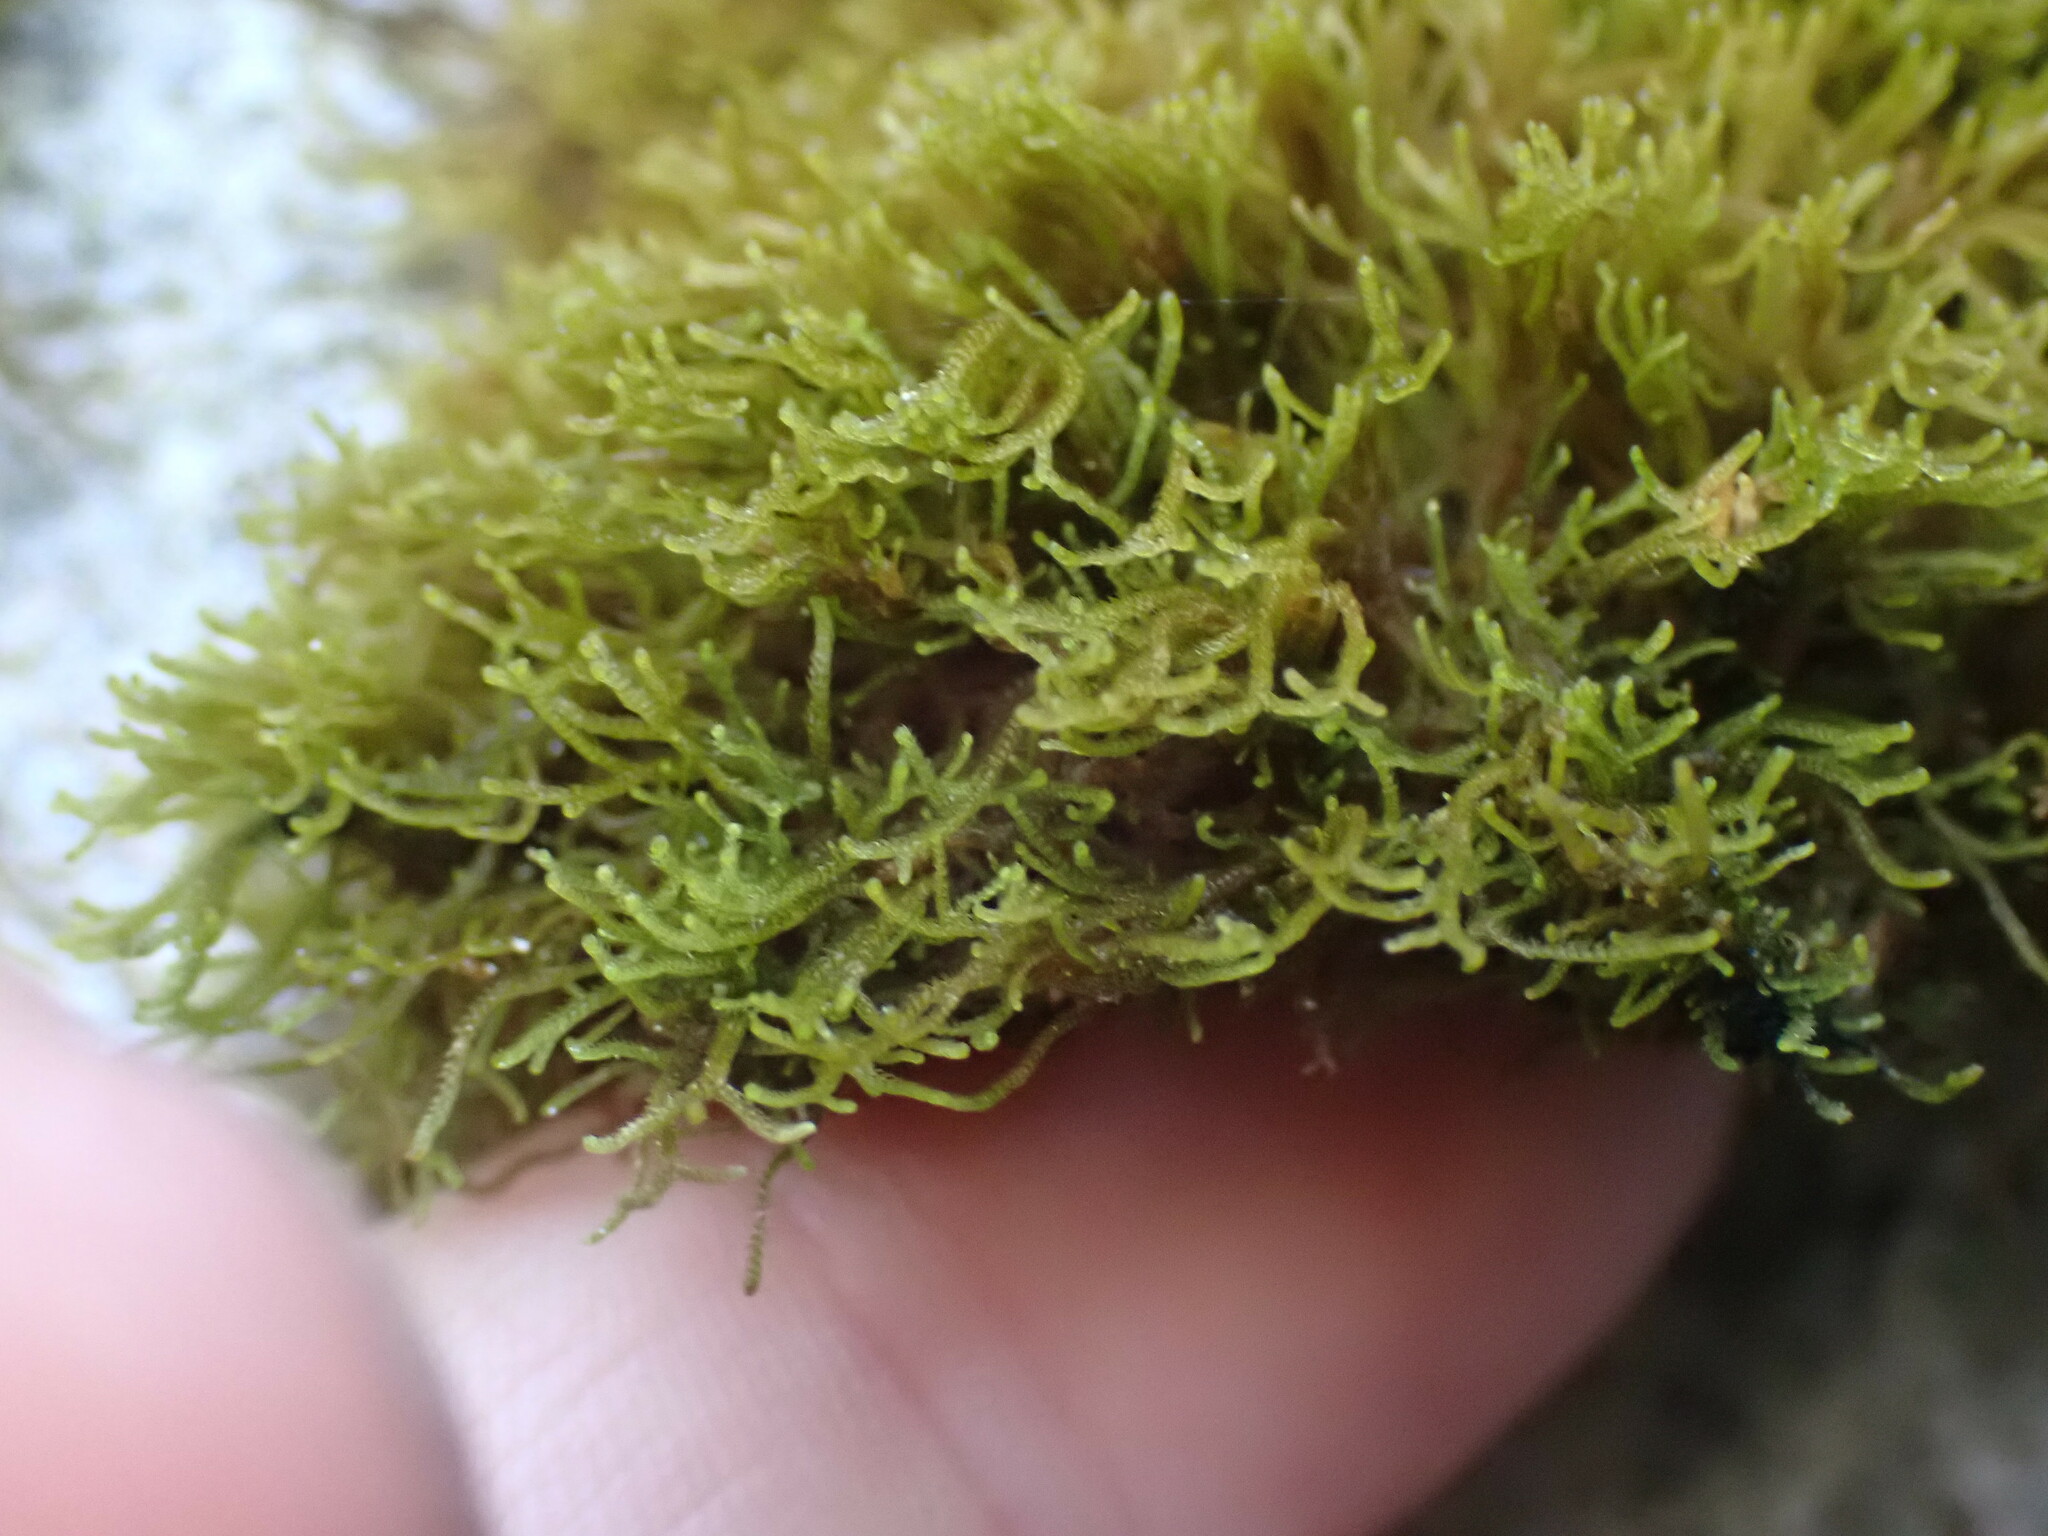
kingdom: Plantae
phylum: Marchantiophyta
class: Jungermanniopsida
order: Jungermanniales
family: Anastrophyllaceae
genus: Tetralophozia
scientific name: Tetralophozia setiformis
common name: Monster pawwort
